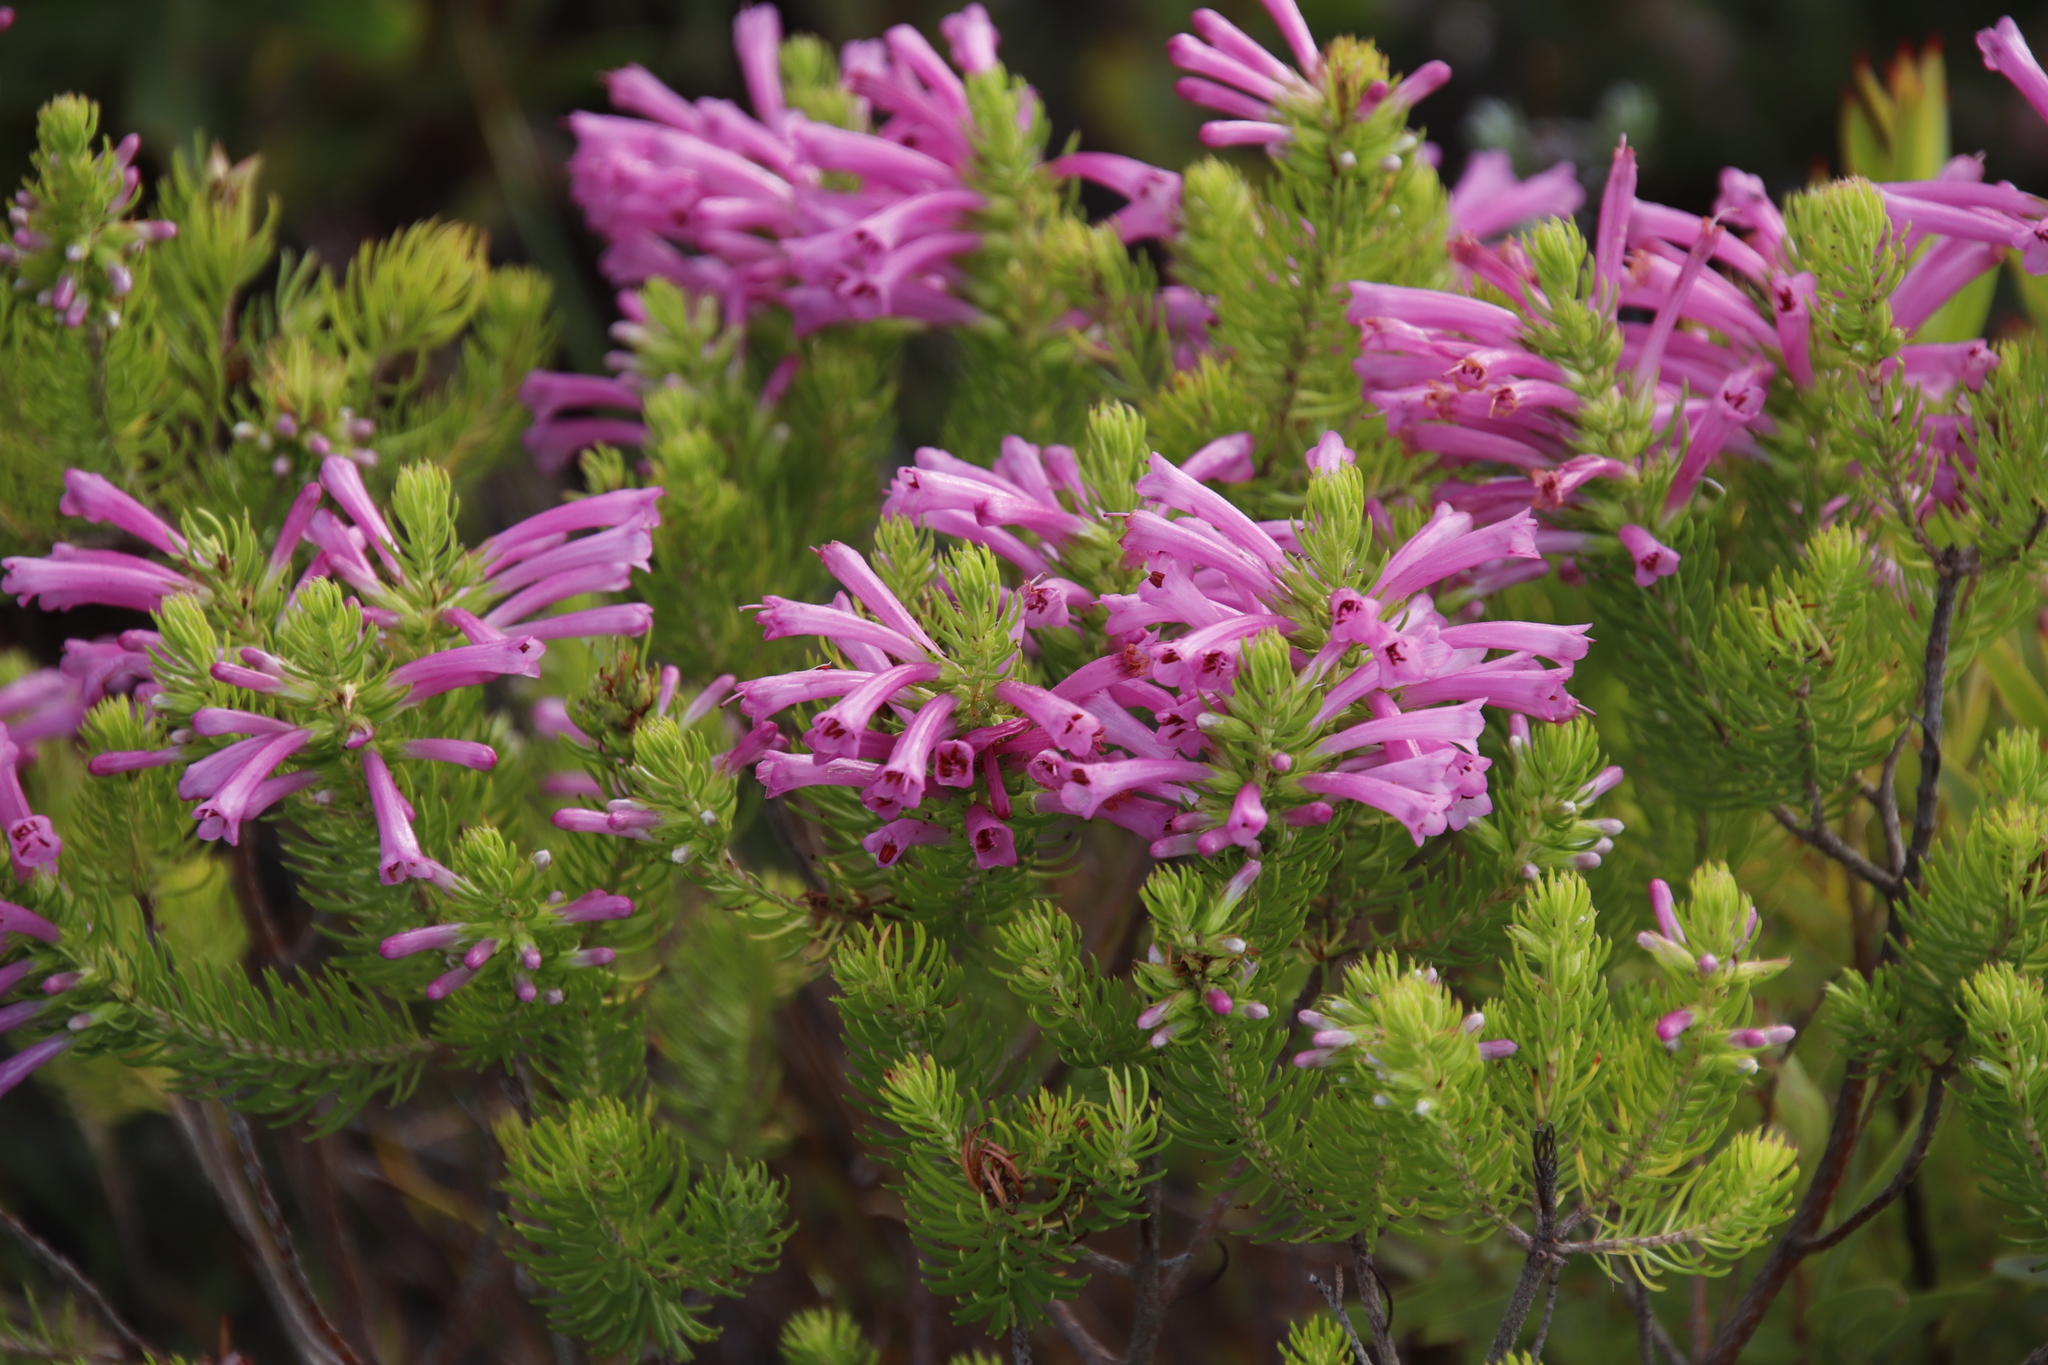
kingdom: Plantae
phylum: Tracheophyta
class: Magnoliopsida
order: Ericales
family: Ericaceae
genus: Erica
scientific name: Erica abietina
